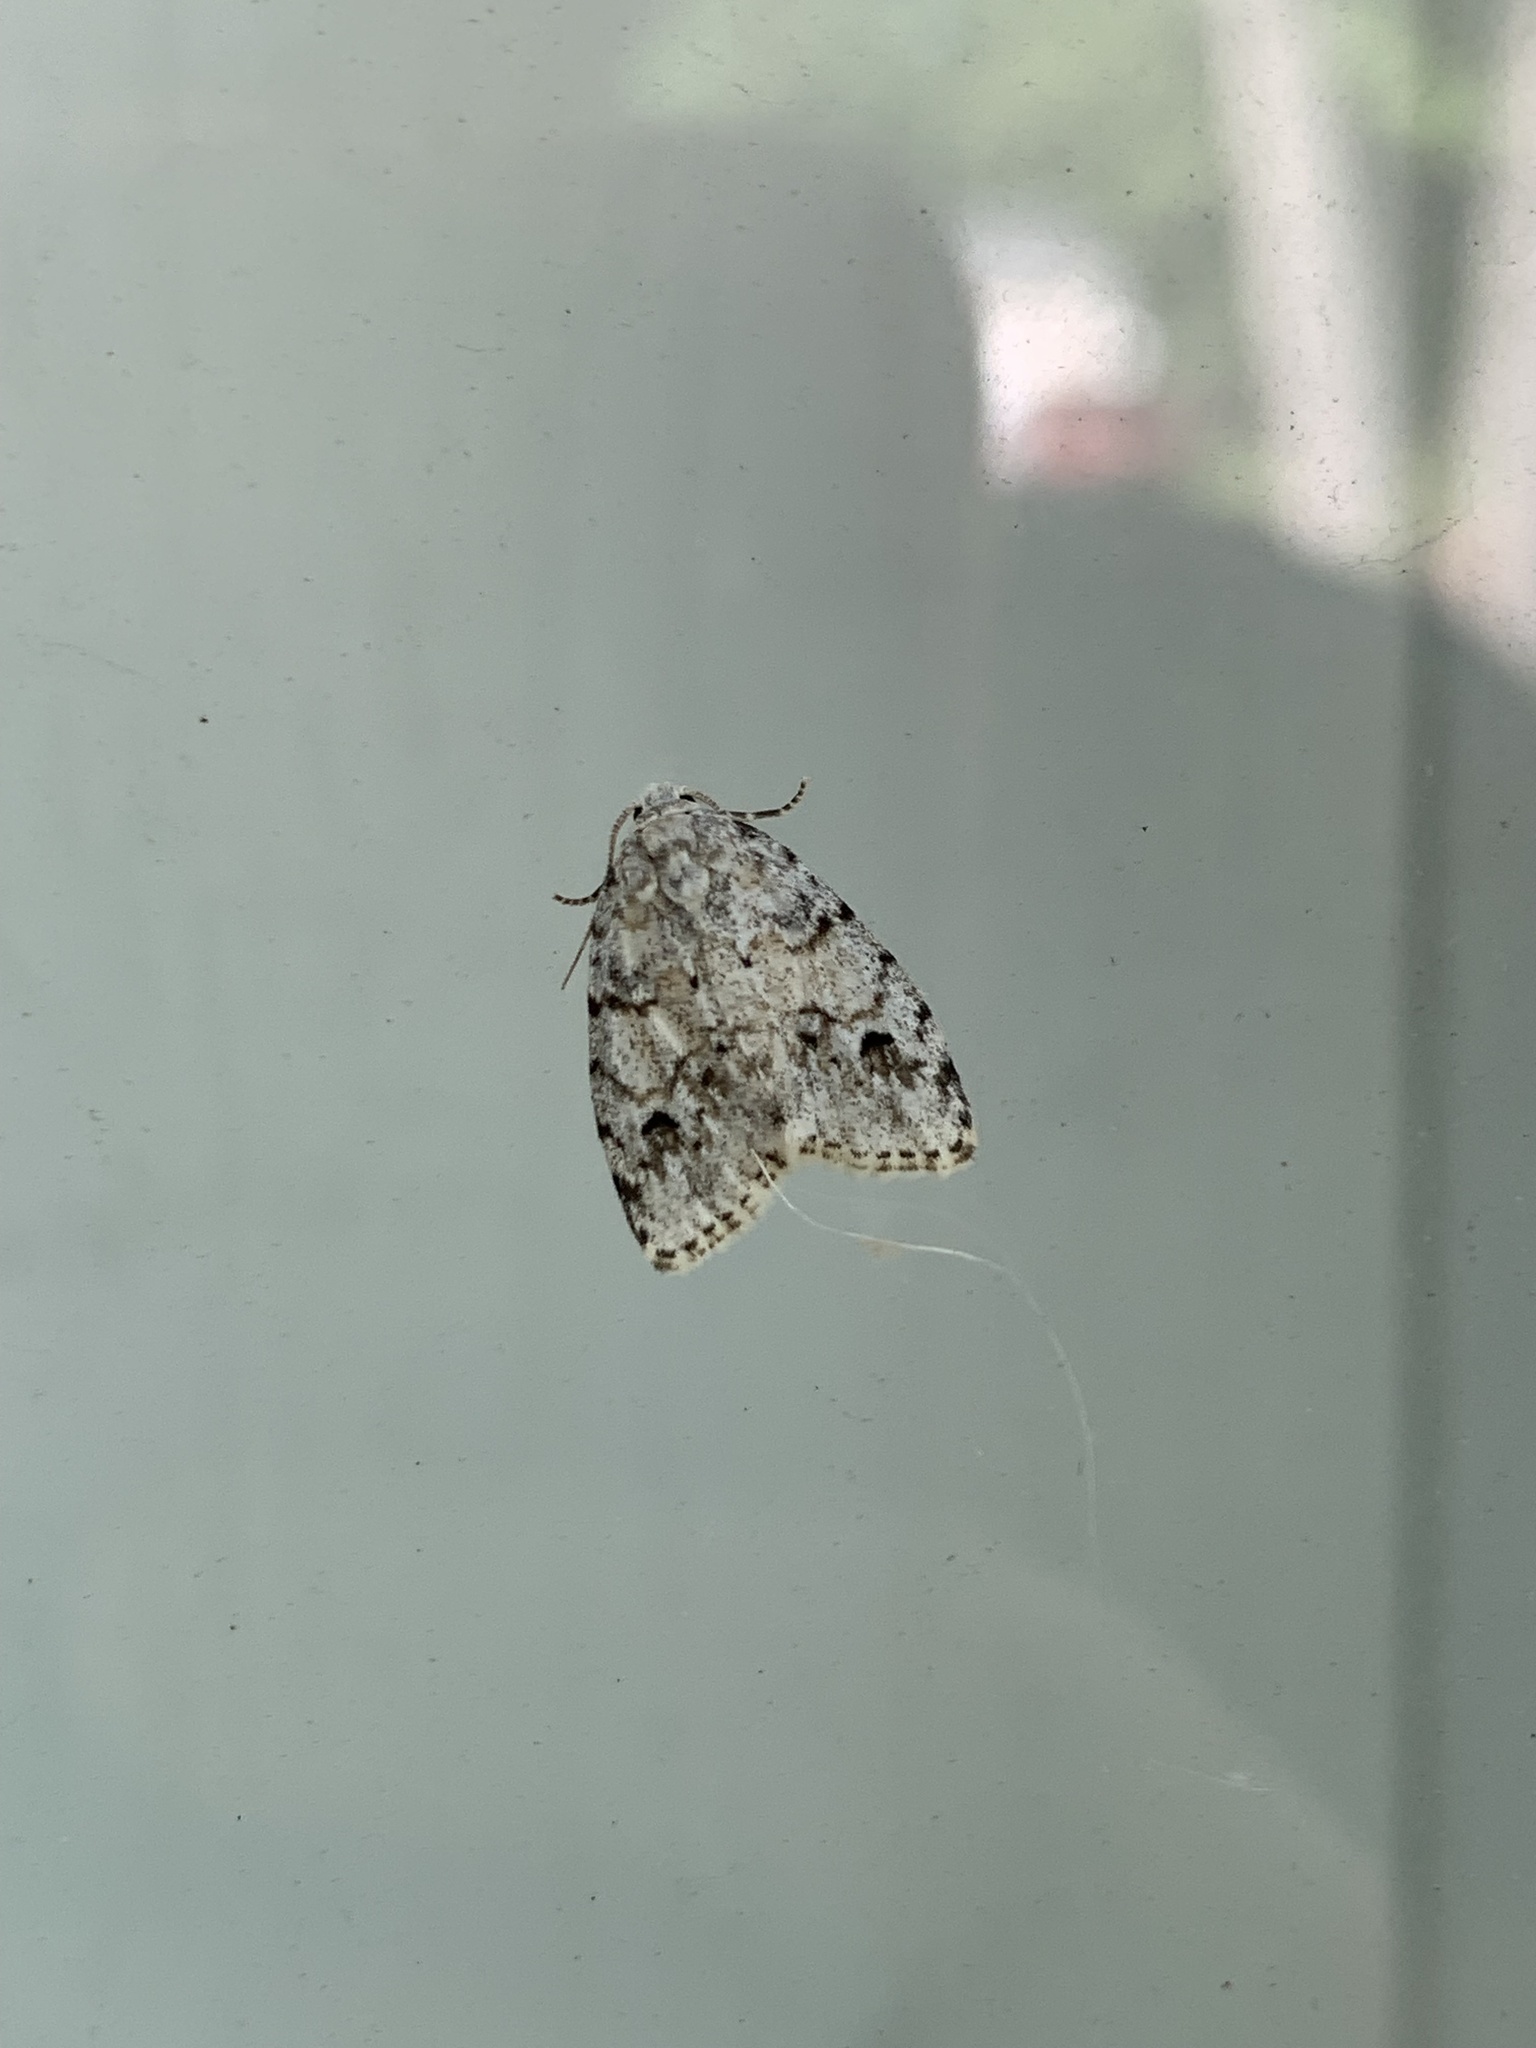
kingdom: Animalia
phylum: Arthropoda
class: Insecta
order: Lepidoptera
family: Erebidae
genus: Clemensia
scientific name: Clemensia albata
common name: Little white lichen moth
